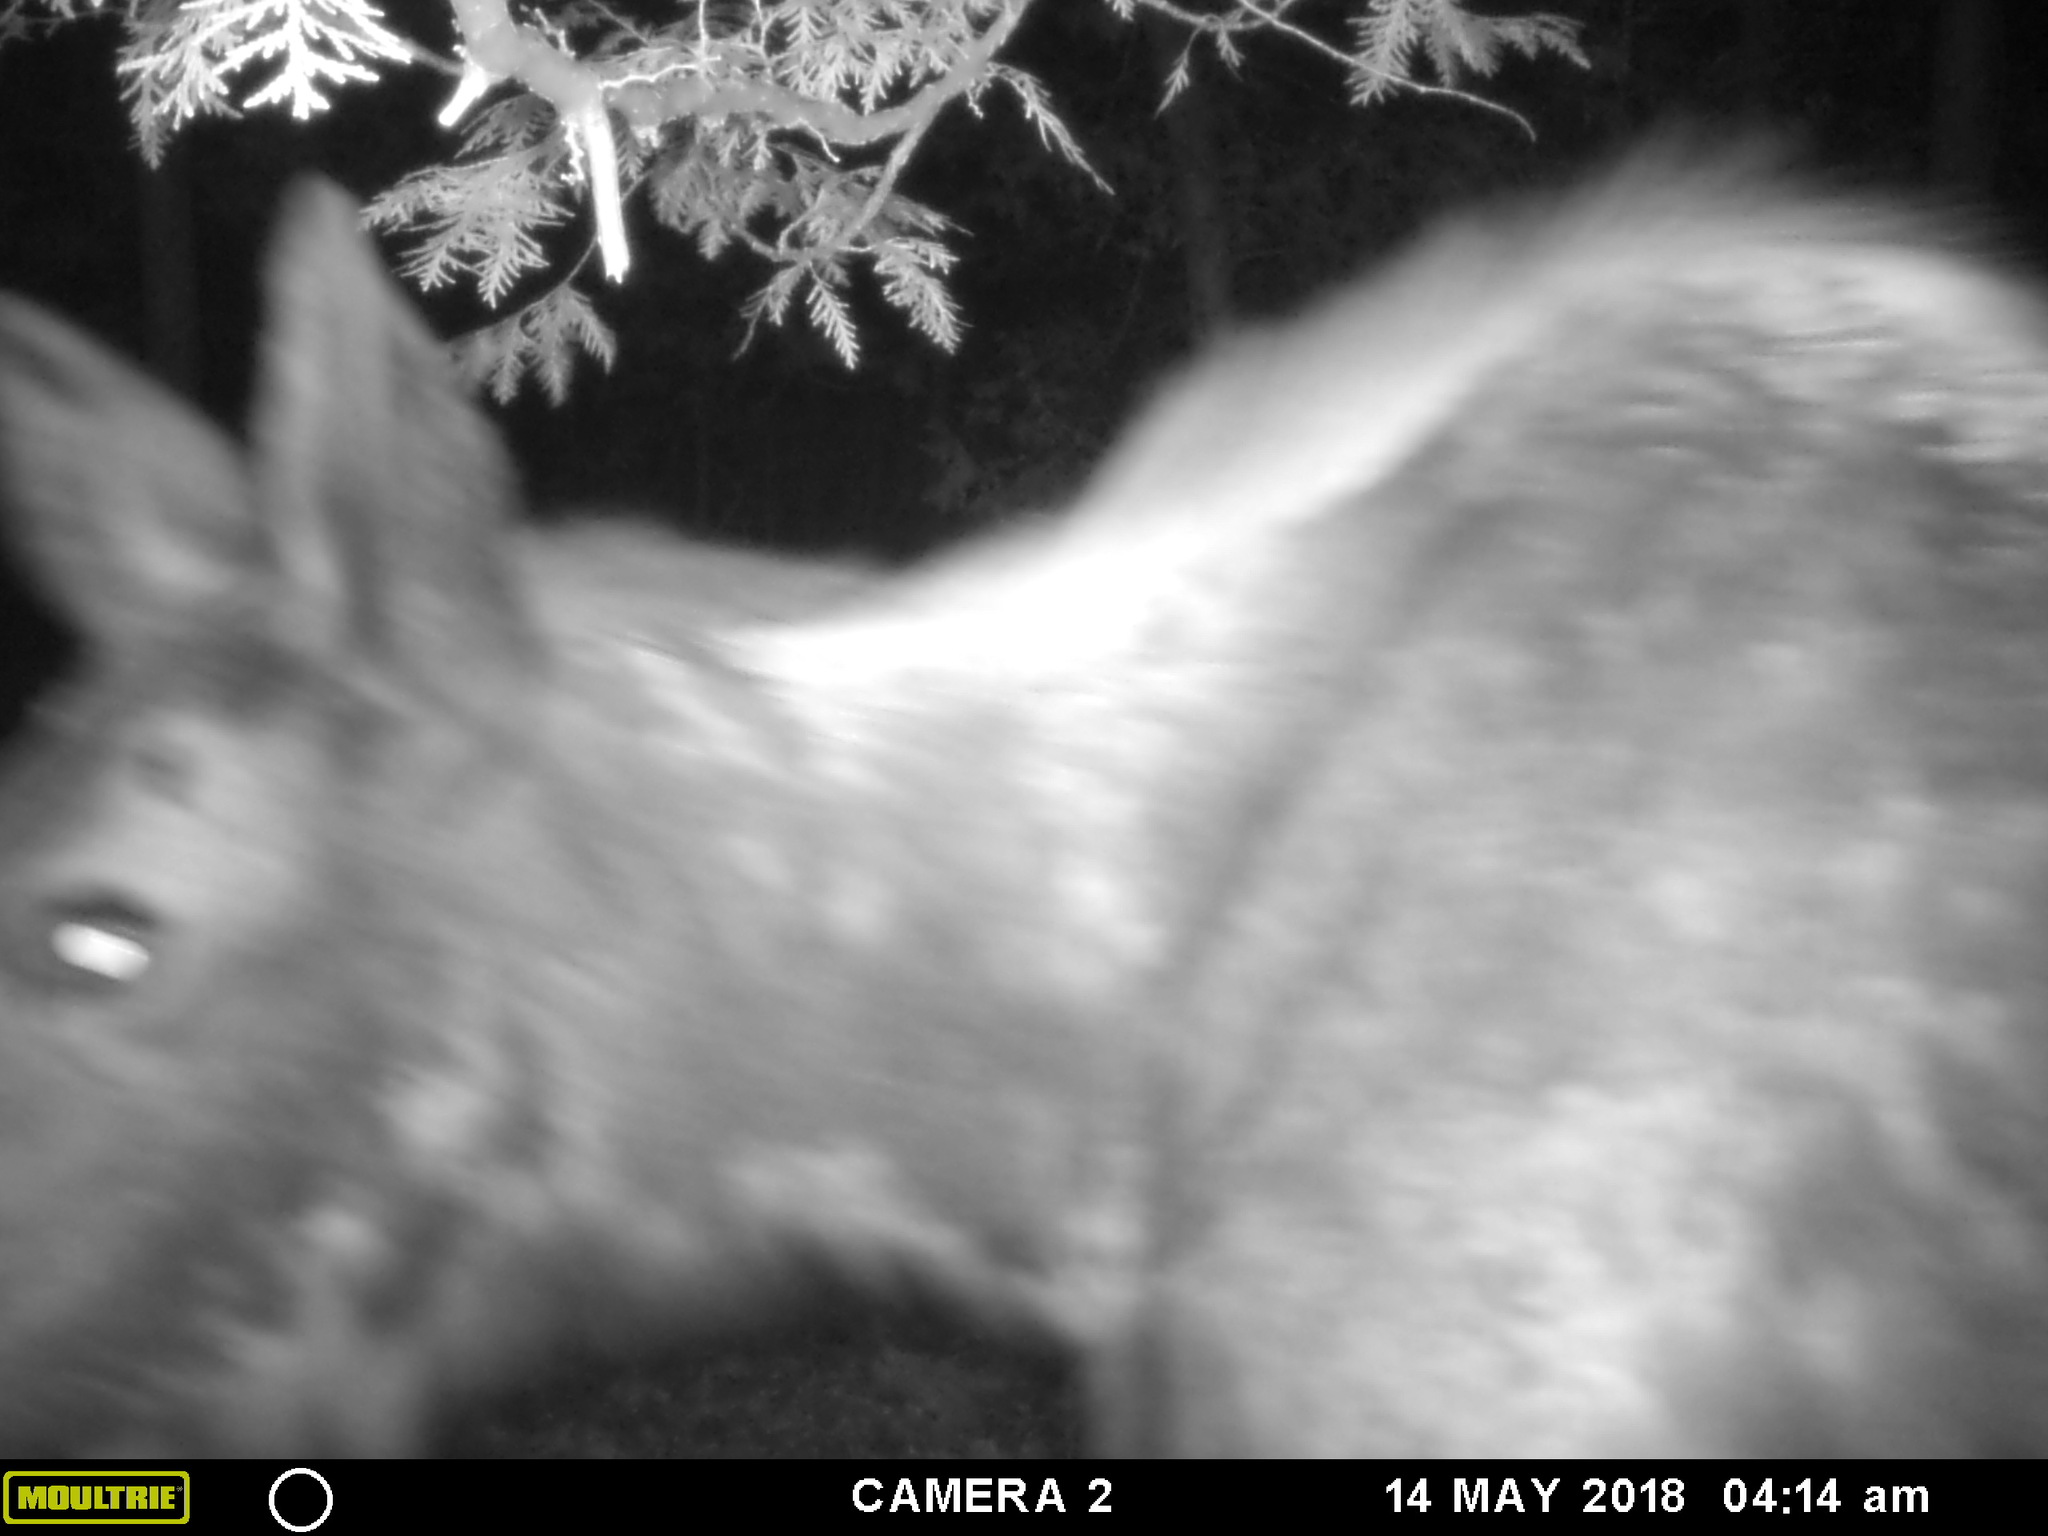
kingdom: Animalia
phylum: Chordata
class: Mammalia
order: Artiodactyla
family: Cervidae
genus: Alces
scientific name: Alces alces
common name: Moose
